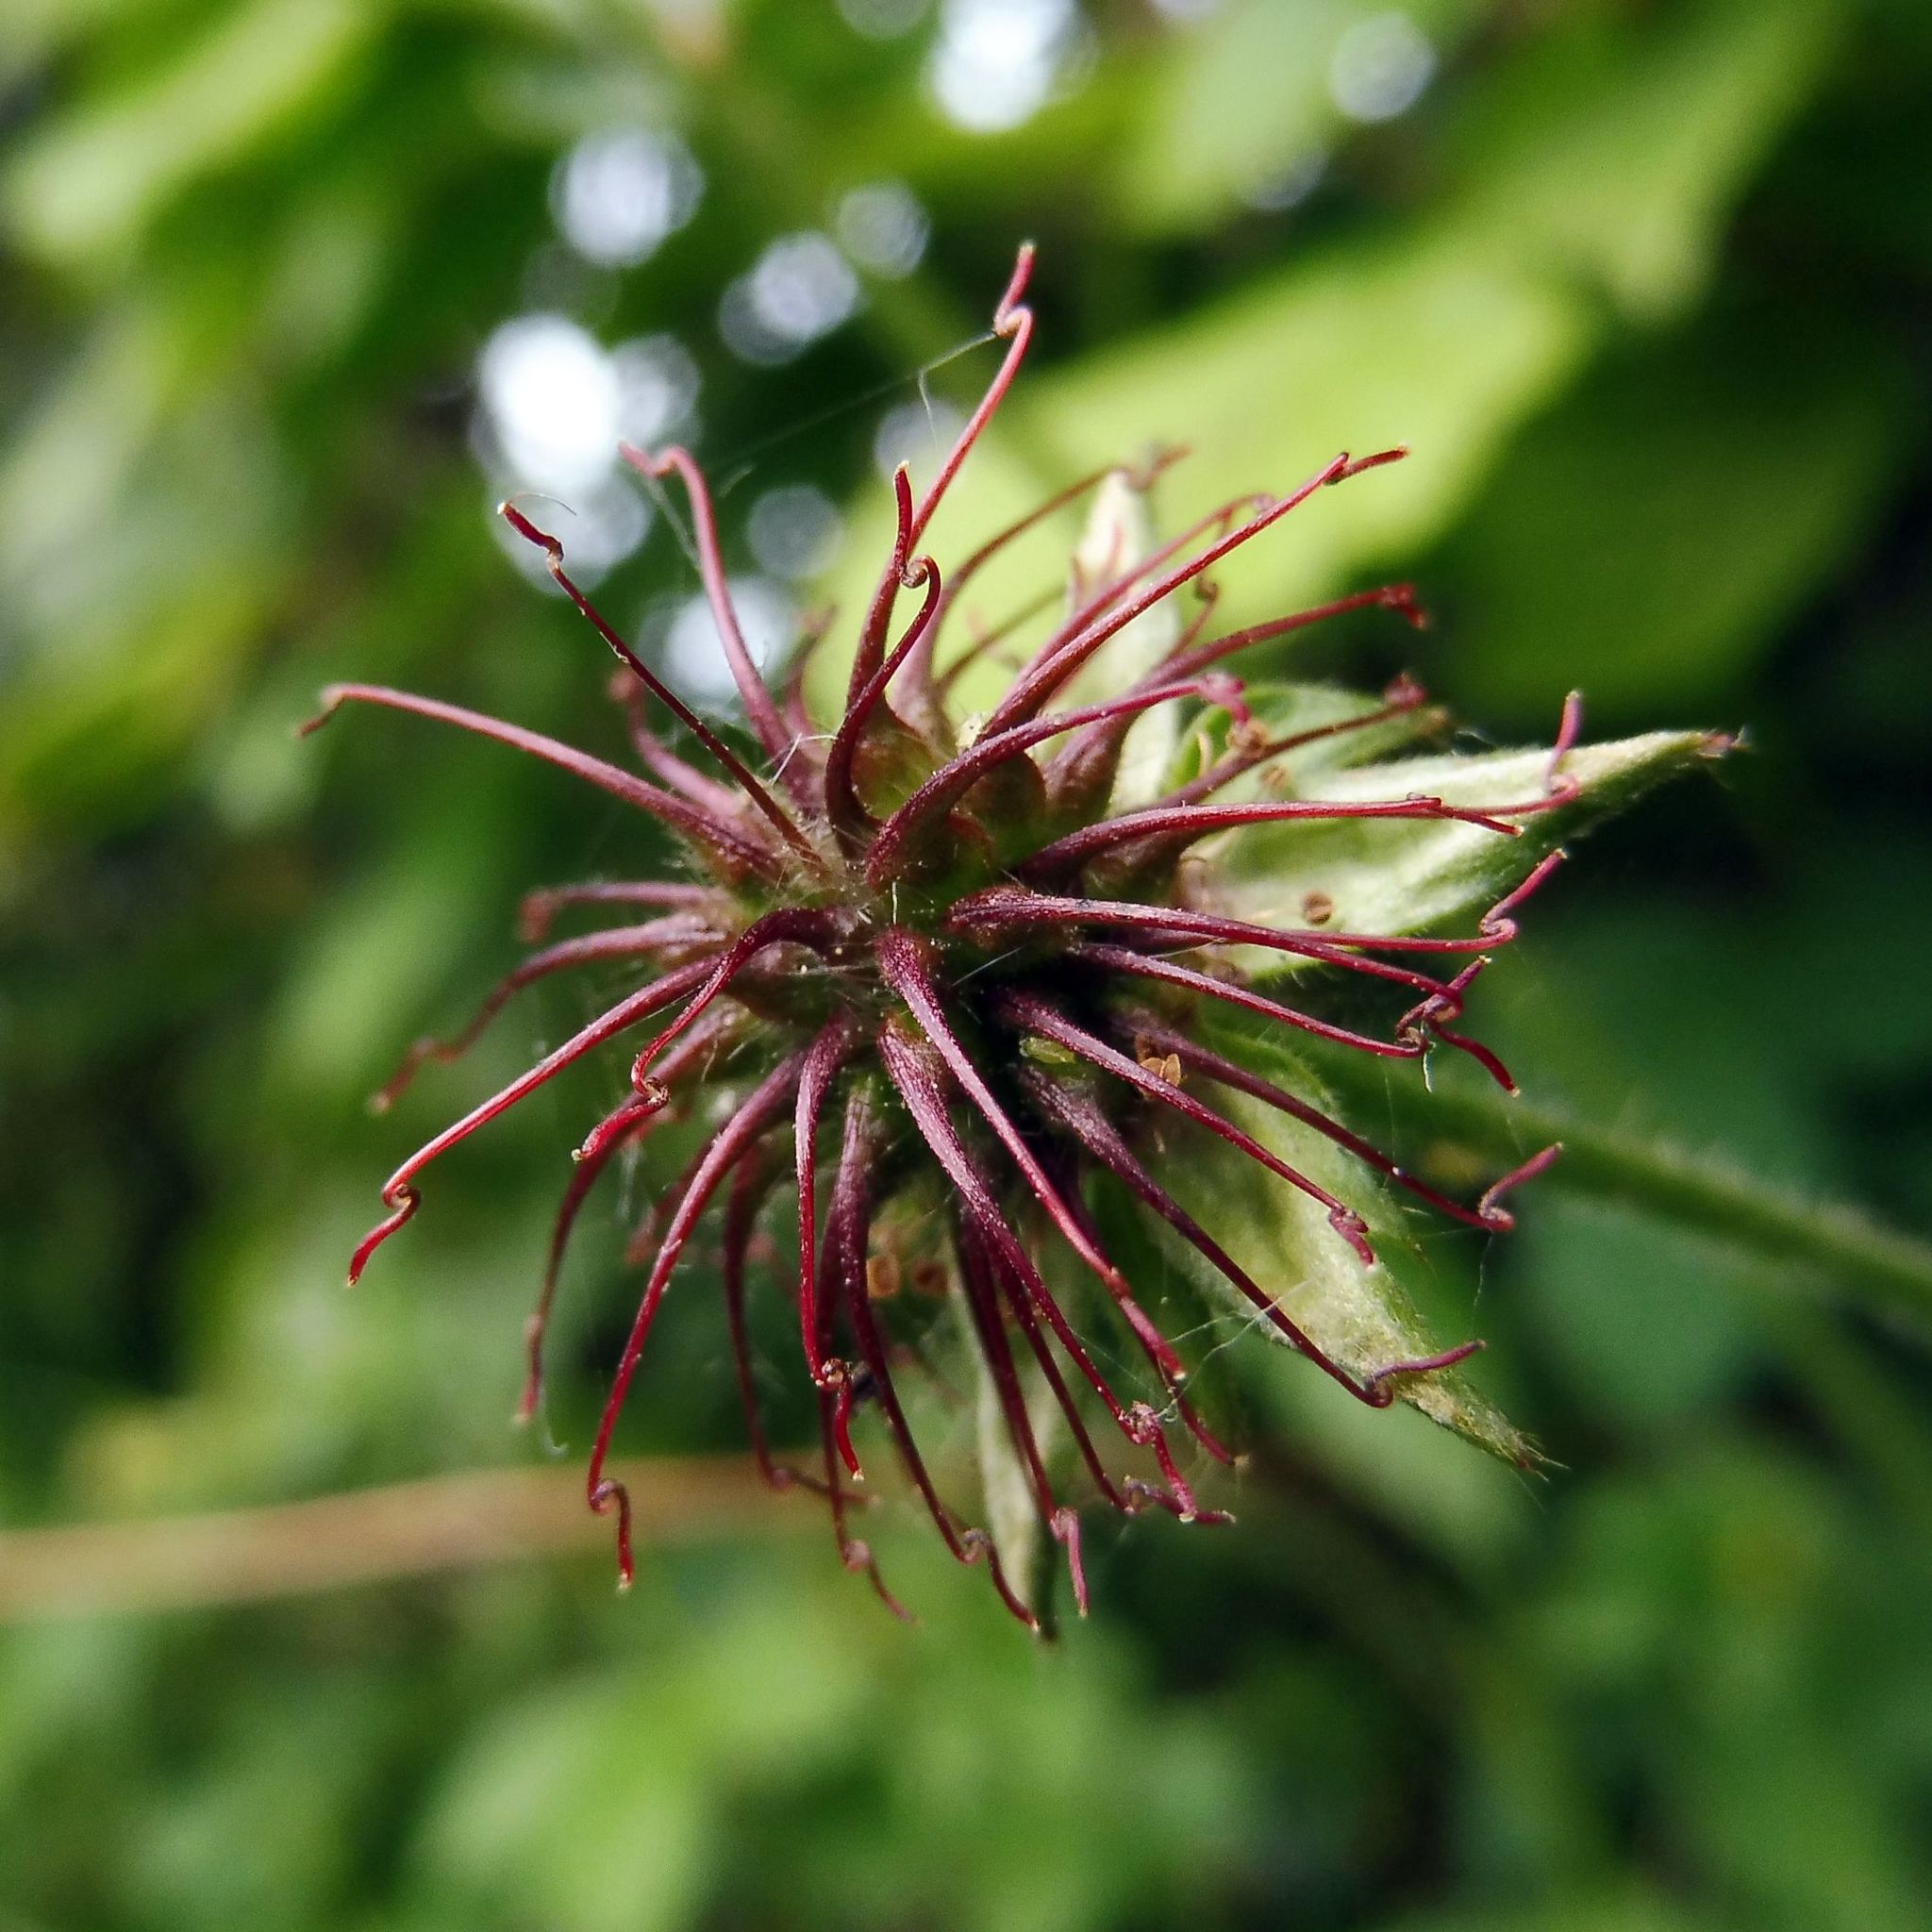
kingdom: Plantae
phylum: Tracheophyta
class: Magnoliopsida
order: Rosales
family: Rosaceae
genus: Geum
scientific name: Geum urbanum
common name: Wood avens
